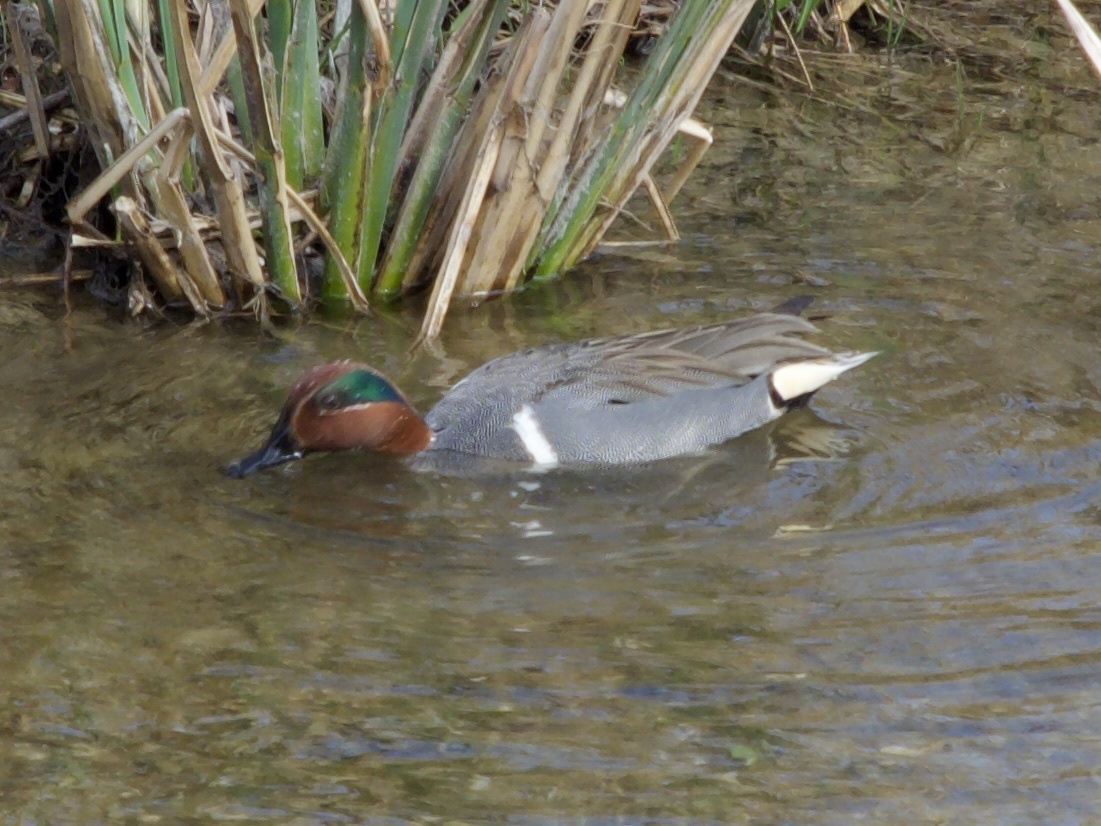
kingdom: Animalia
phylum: Chordata
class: Aves
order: Anseriformes
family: Anatidae
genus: Anas
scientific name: Anas crecca
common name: Eurasian teal
